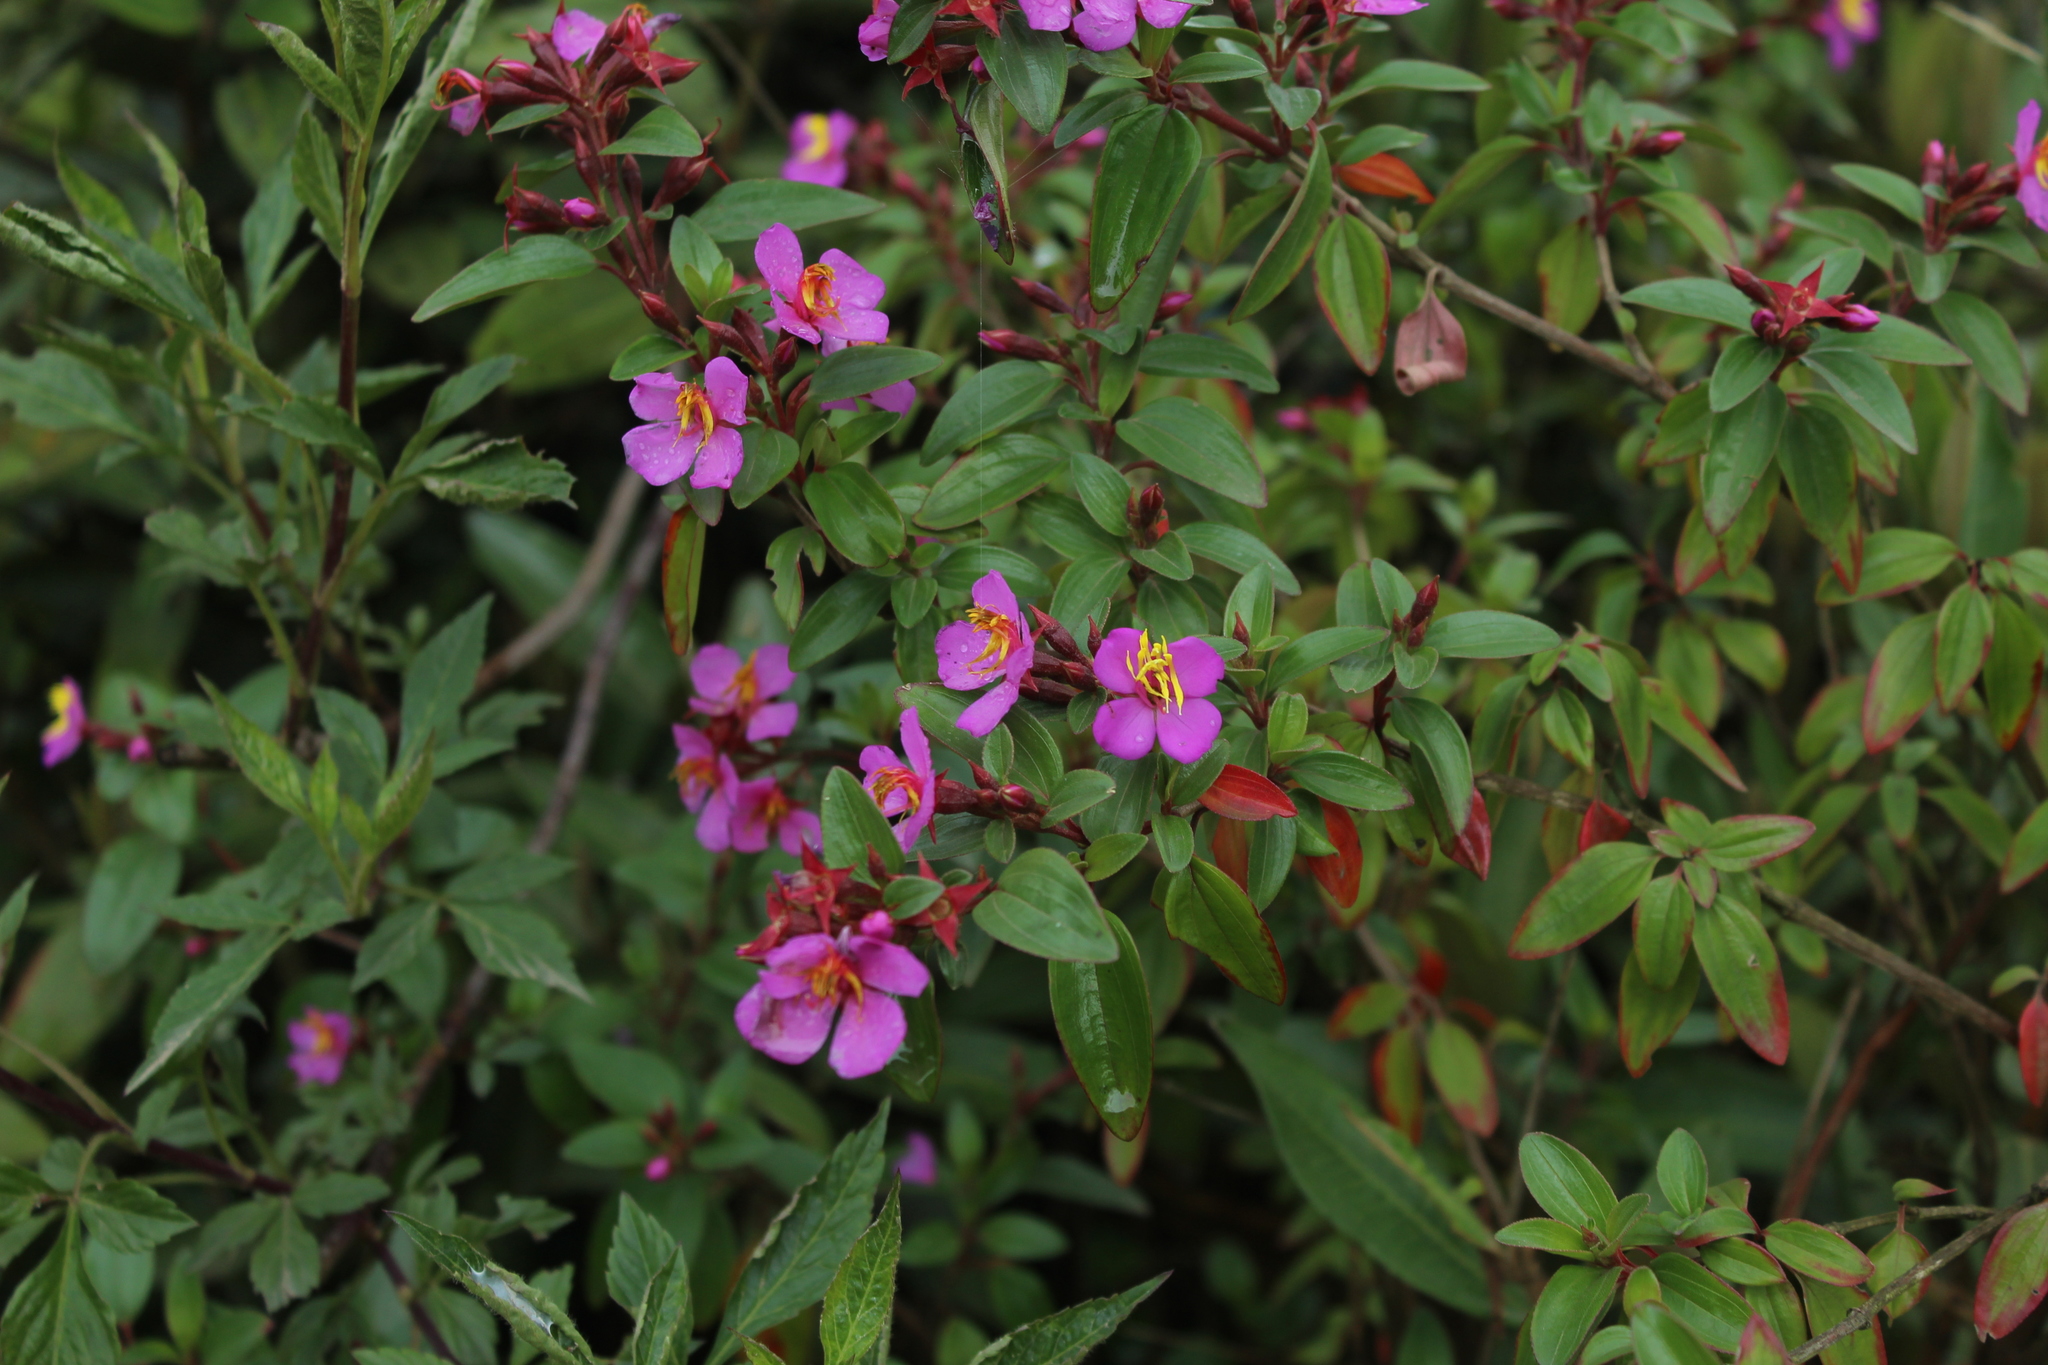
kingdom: Plantae
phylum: Tracheophyta
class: Magnoliopsida
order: Myrtales
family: Melastomataceae
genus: Monochaetum
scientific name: Monochaetum myrtoideum
